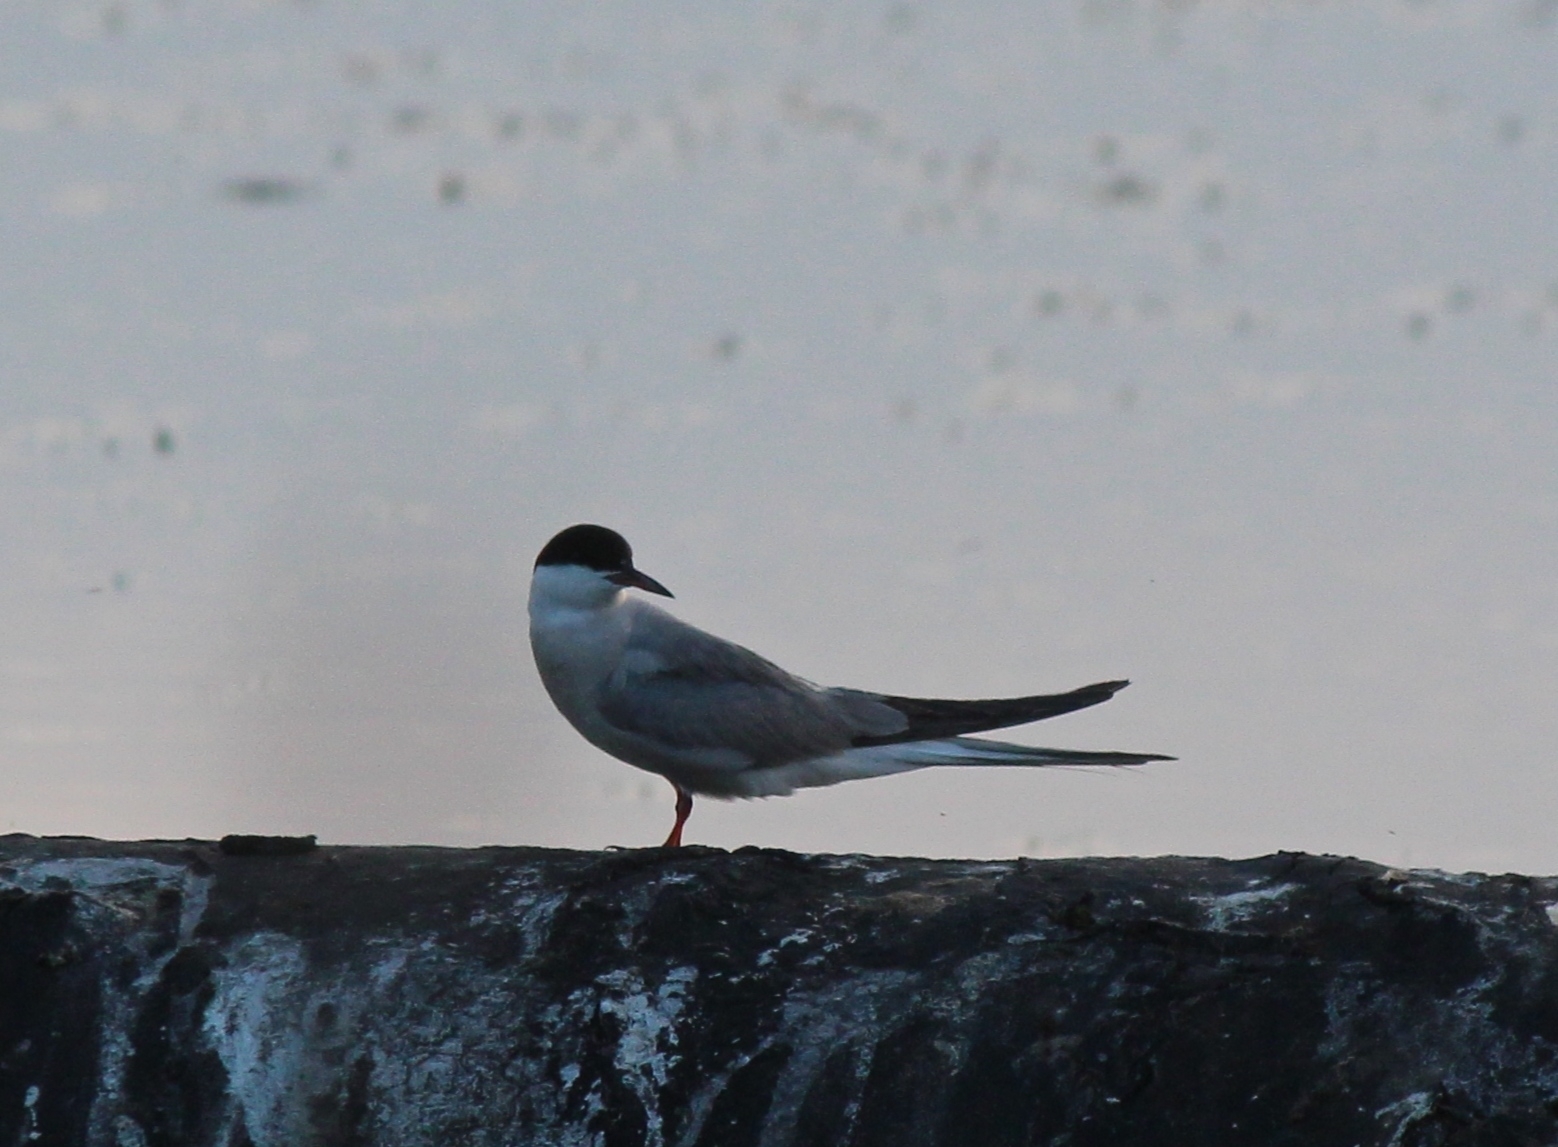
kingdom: Animalia
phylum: Chordata
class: Aves
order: Charadriiformes
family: Laridae
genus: Sterna
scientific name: Sterna hirundo
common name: Common tern
